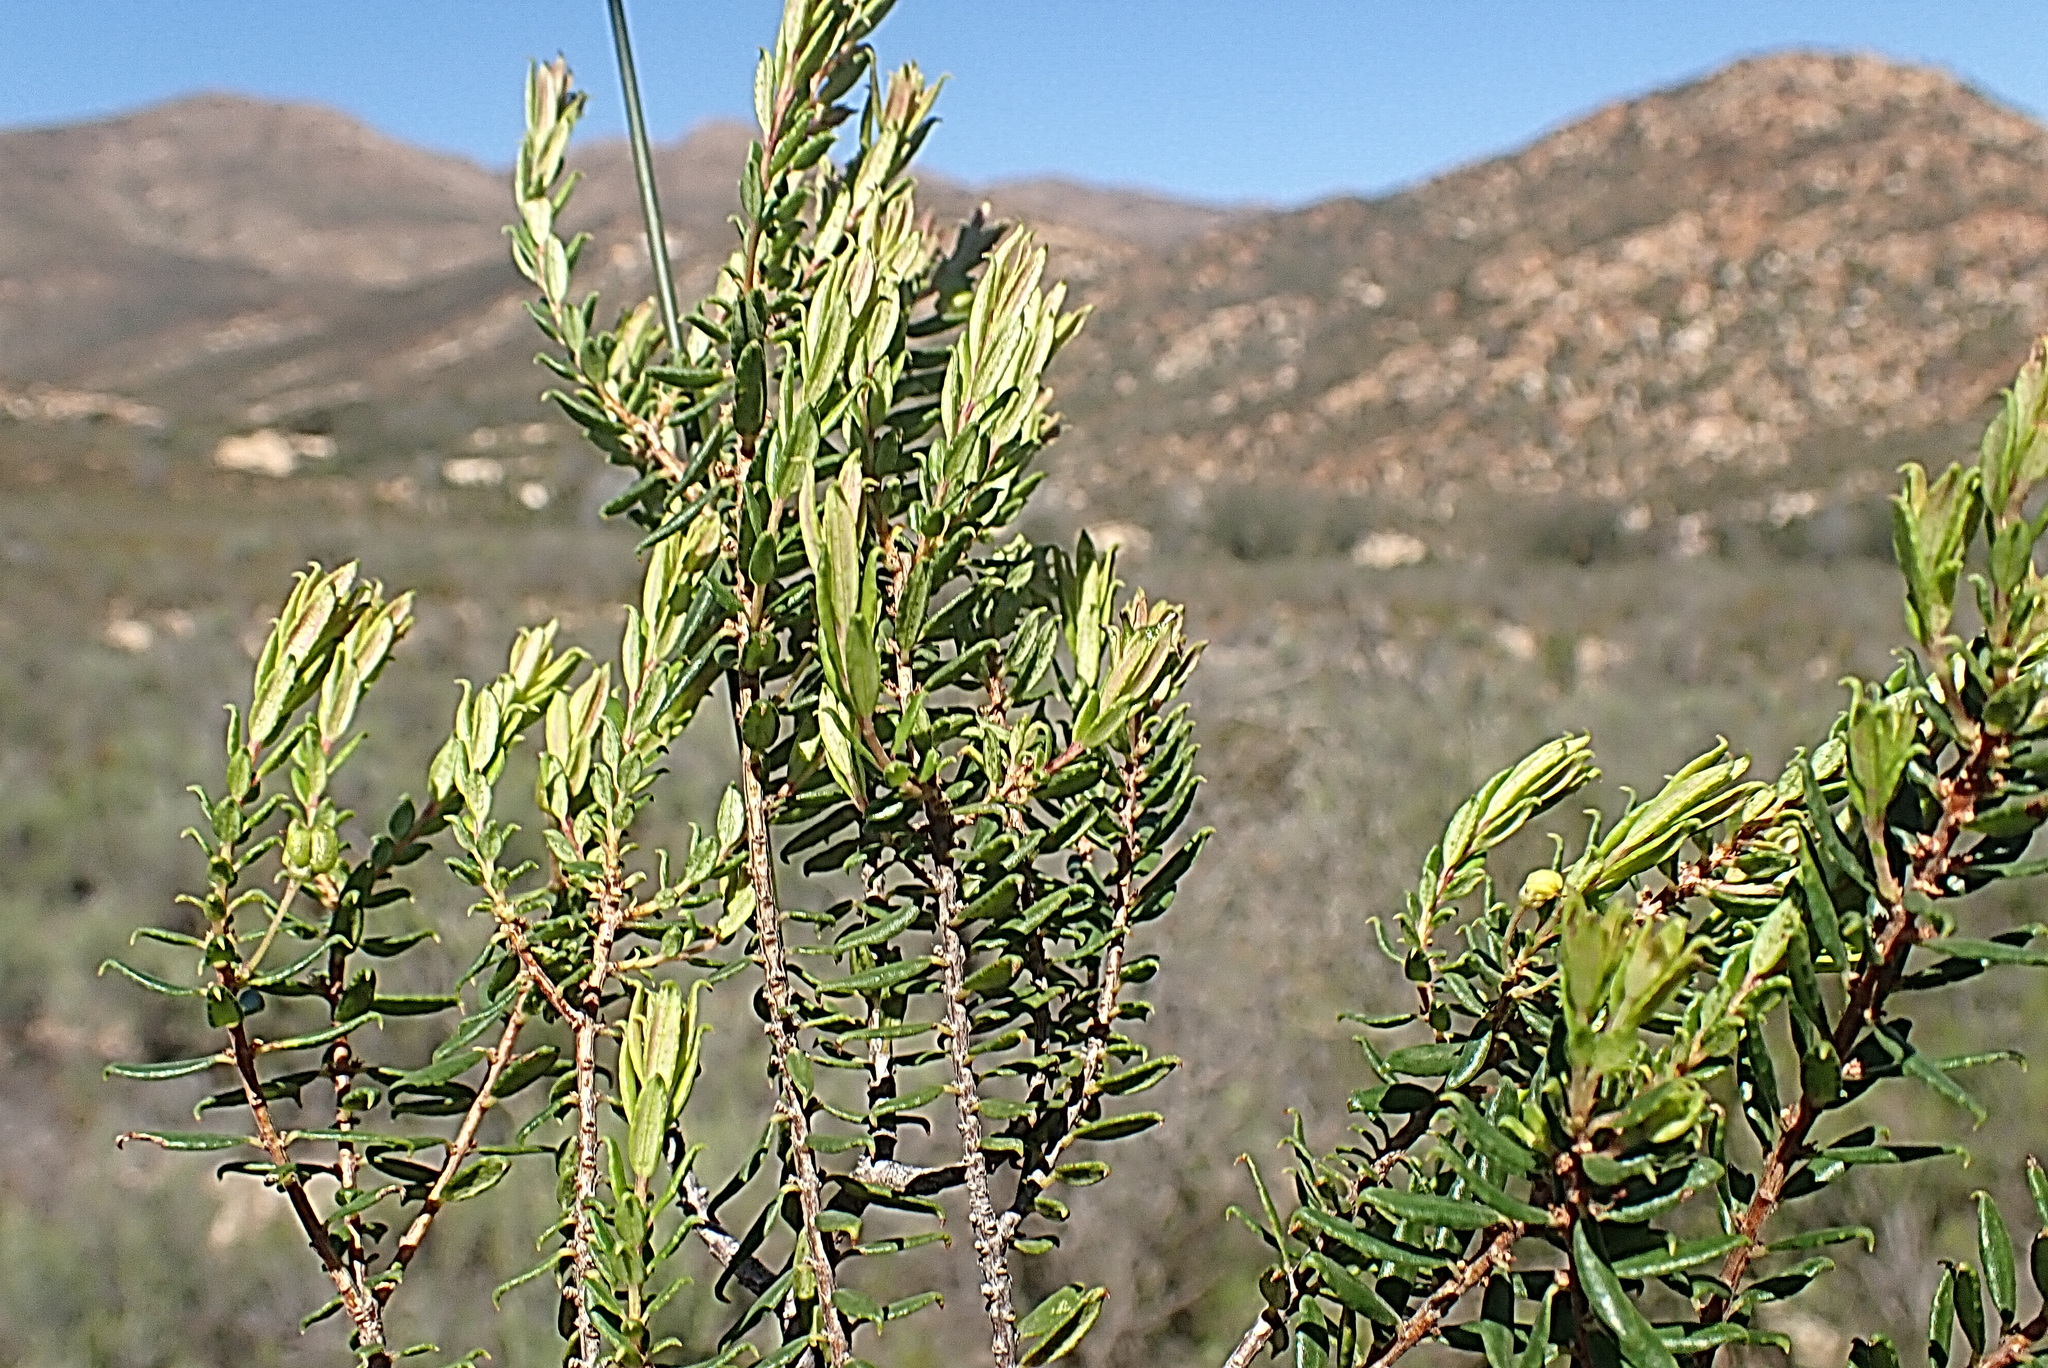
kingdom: Plantae
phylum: Tracheophyta
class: Magnoliopsida
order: Sapindales
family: Rutaceae
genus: Agathosma
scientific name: Agathosma ovata
